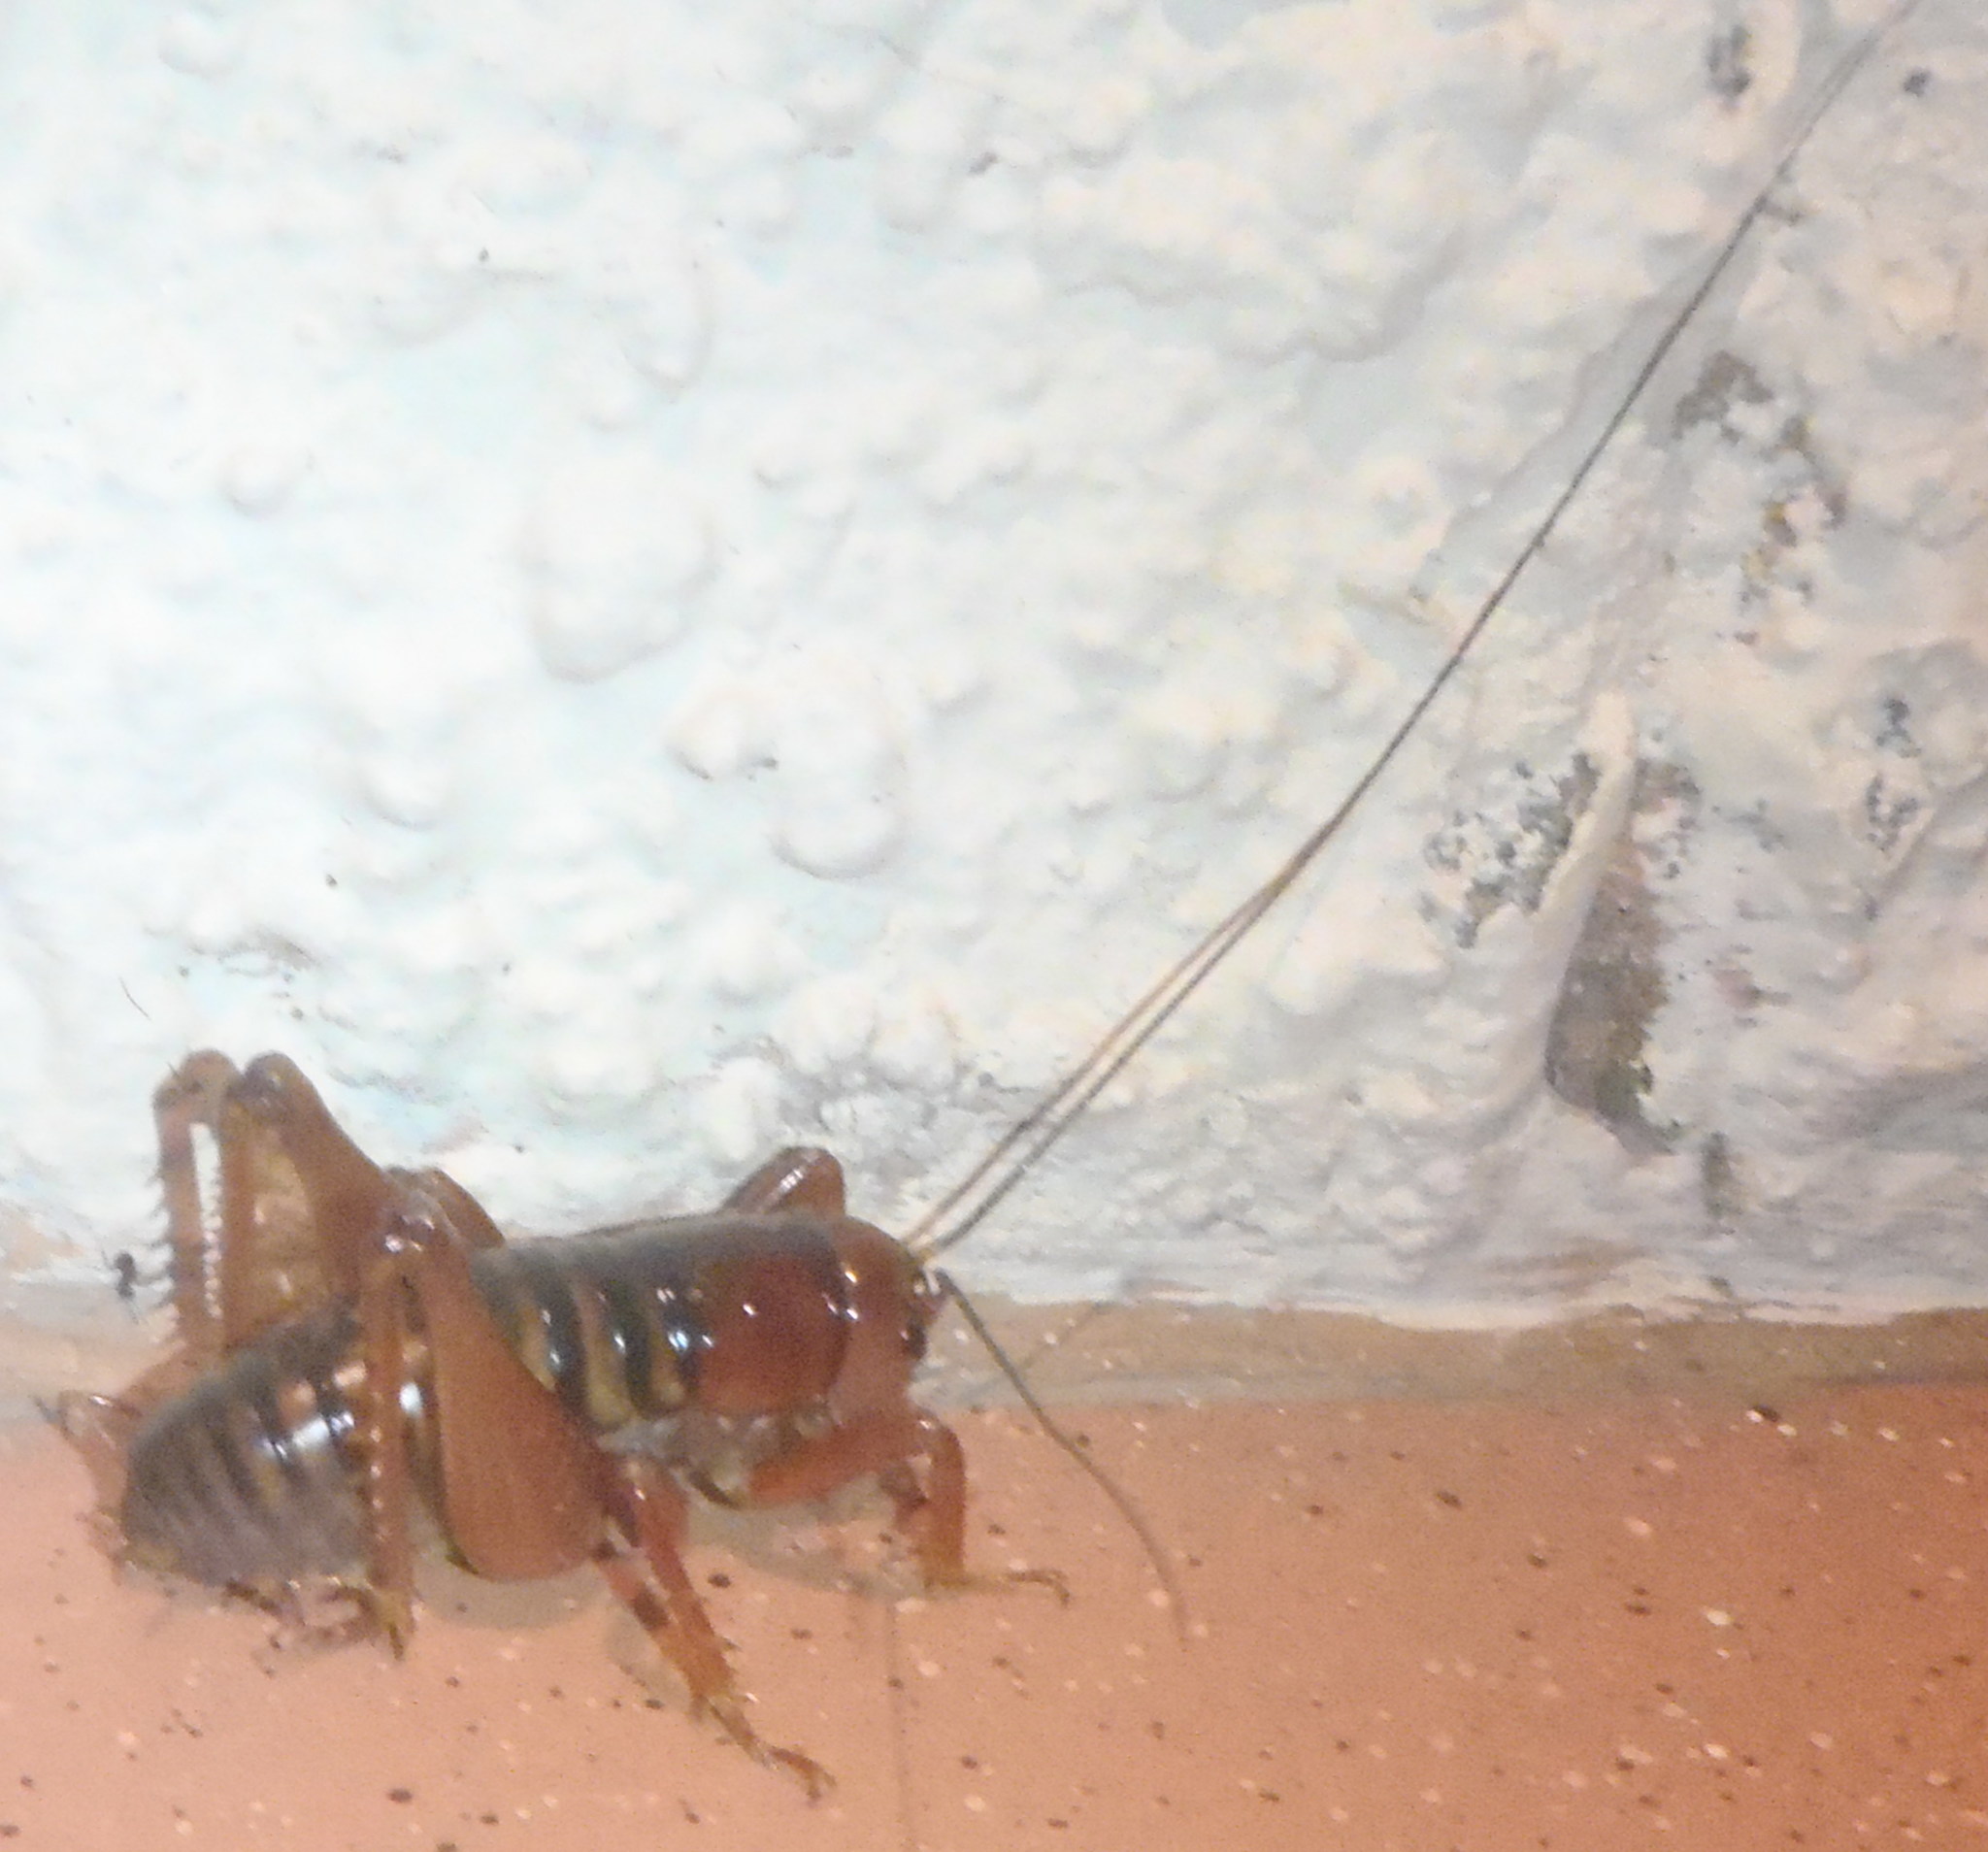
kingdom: Animalia
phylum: Arthropoda
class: Insecta
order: Orthoptera
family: Anostostomatidae
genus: Libanasidus
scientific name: Libanasidus vittatus
